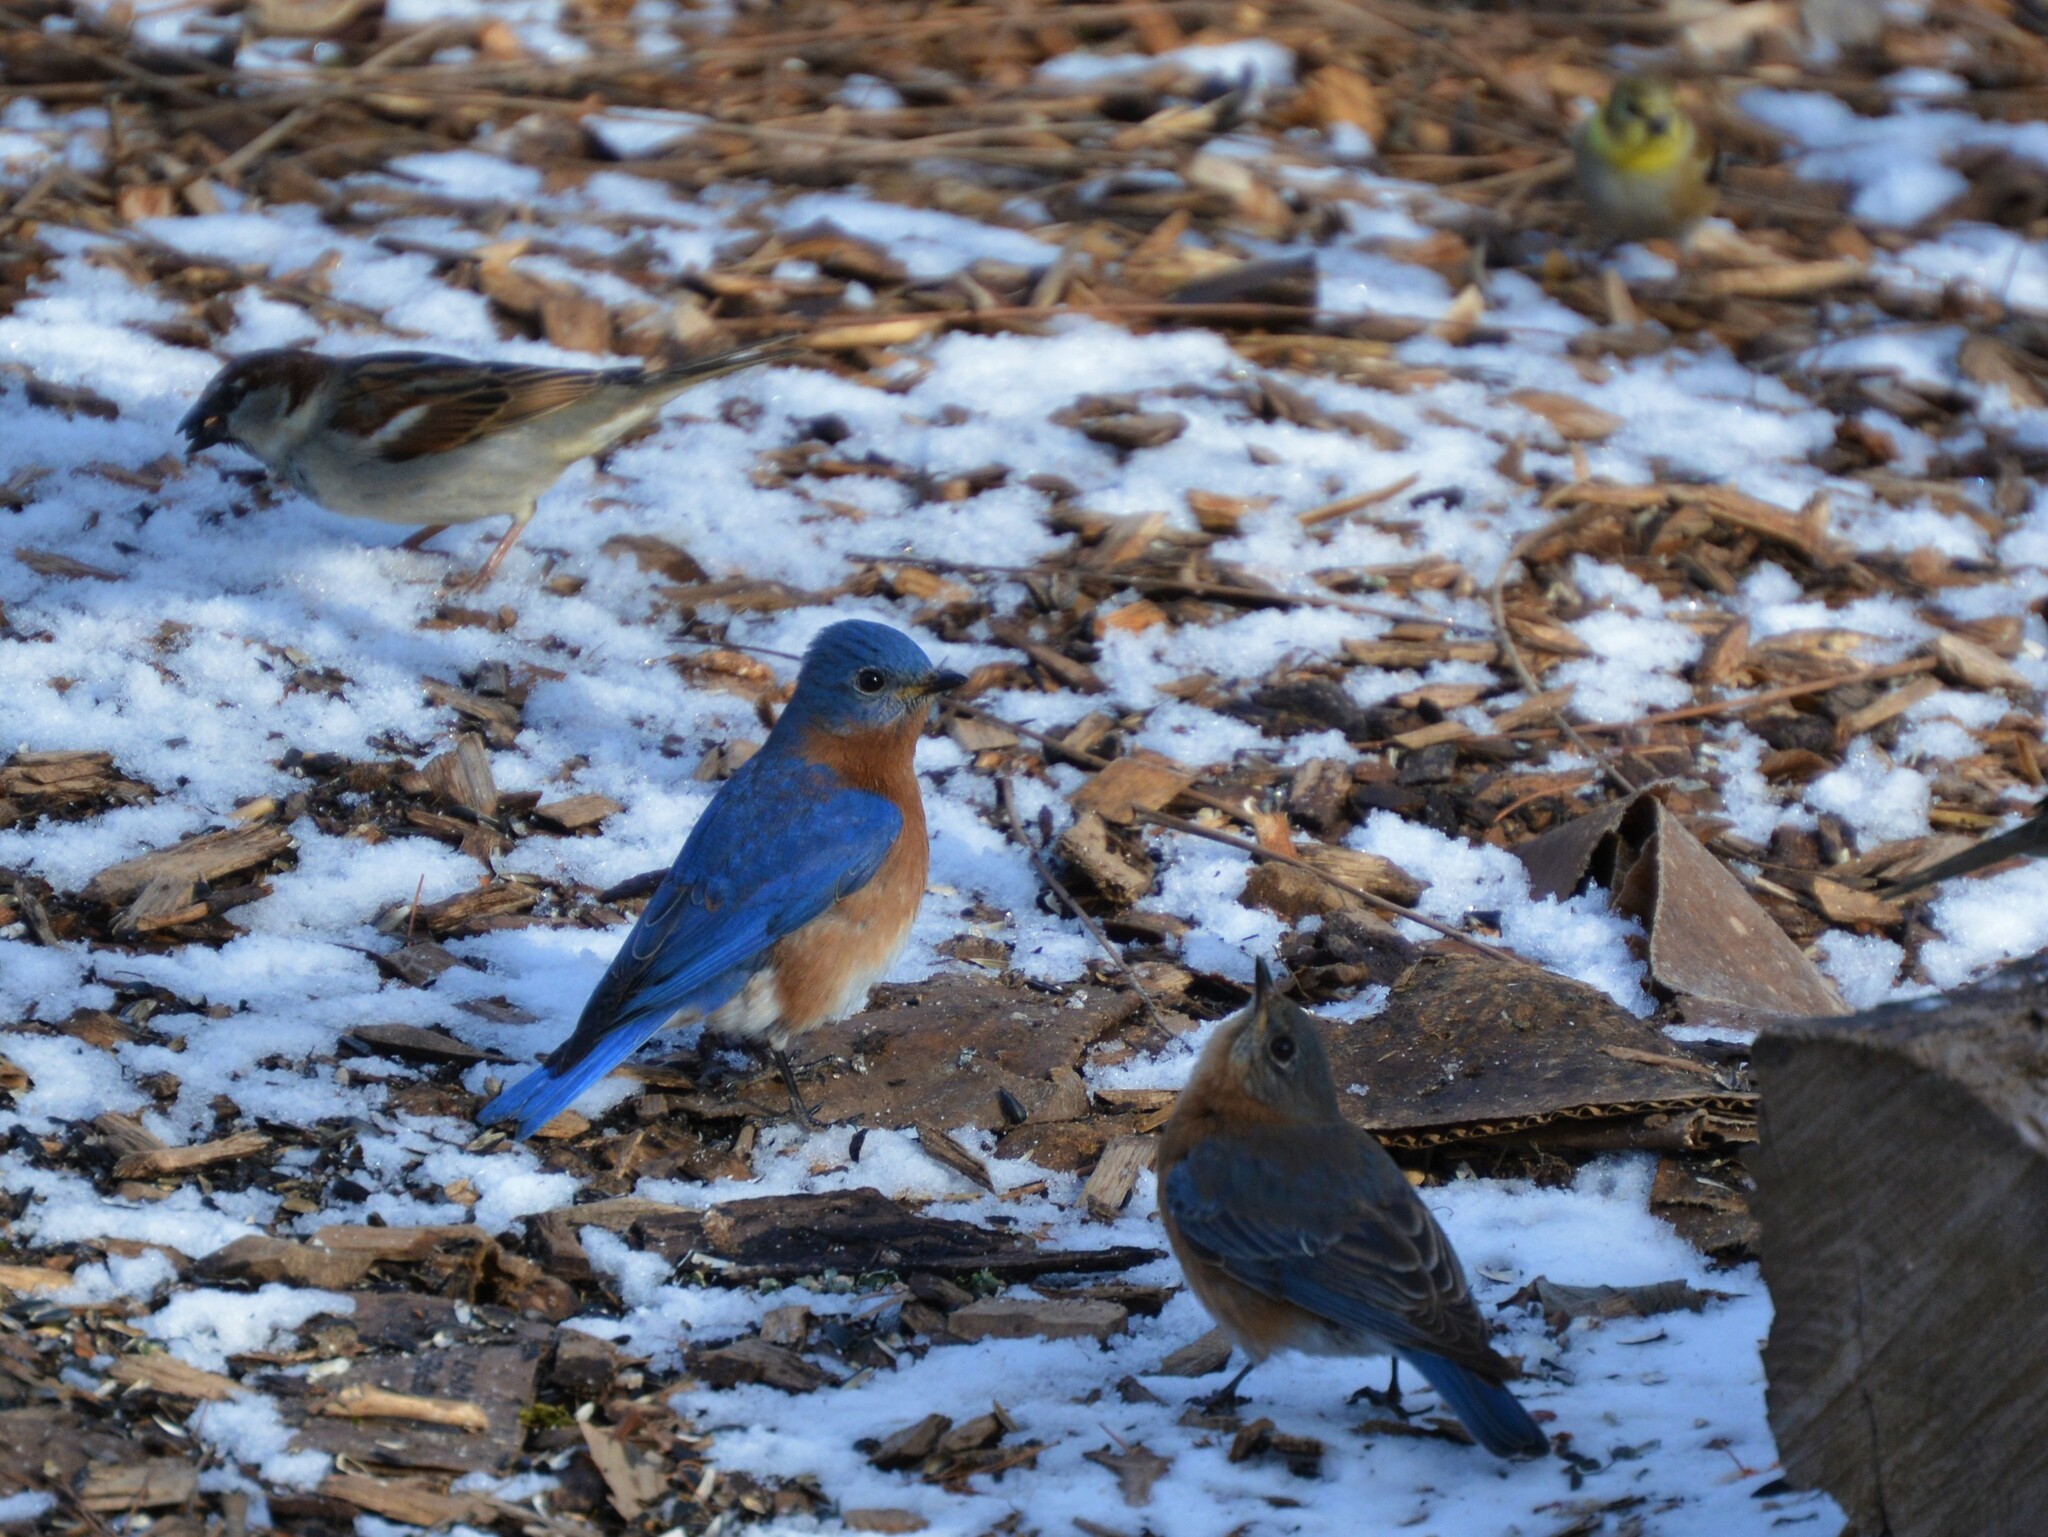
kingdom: Animalia
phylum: Chordata
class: Aves
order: Passeriformes
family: Turdidae
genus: Sialia
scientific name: Sialia sialis
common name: Eastern bluebird
